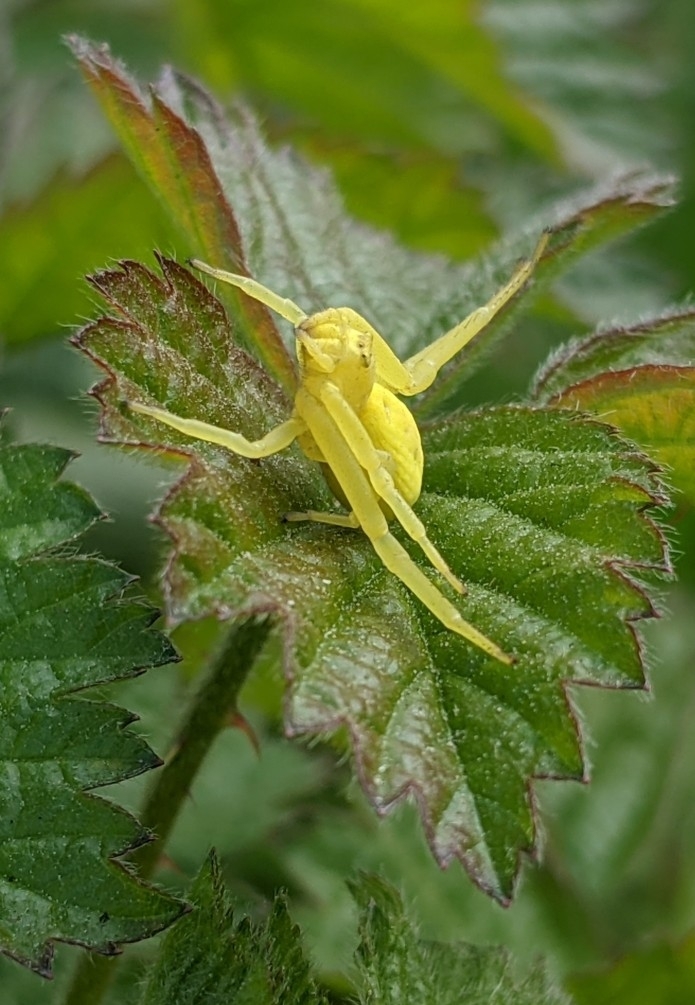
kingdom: Animalia
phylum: Arthropoda
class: Arachnida
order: Araneae
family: Thomisidae
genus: Misumena
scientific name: Misumena vatia
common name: Goldenrod crab spider
